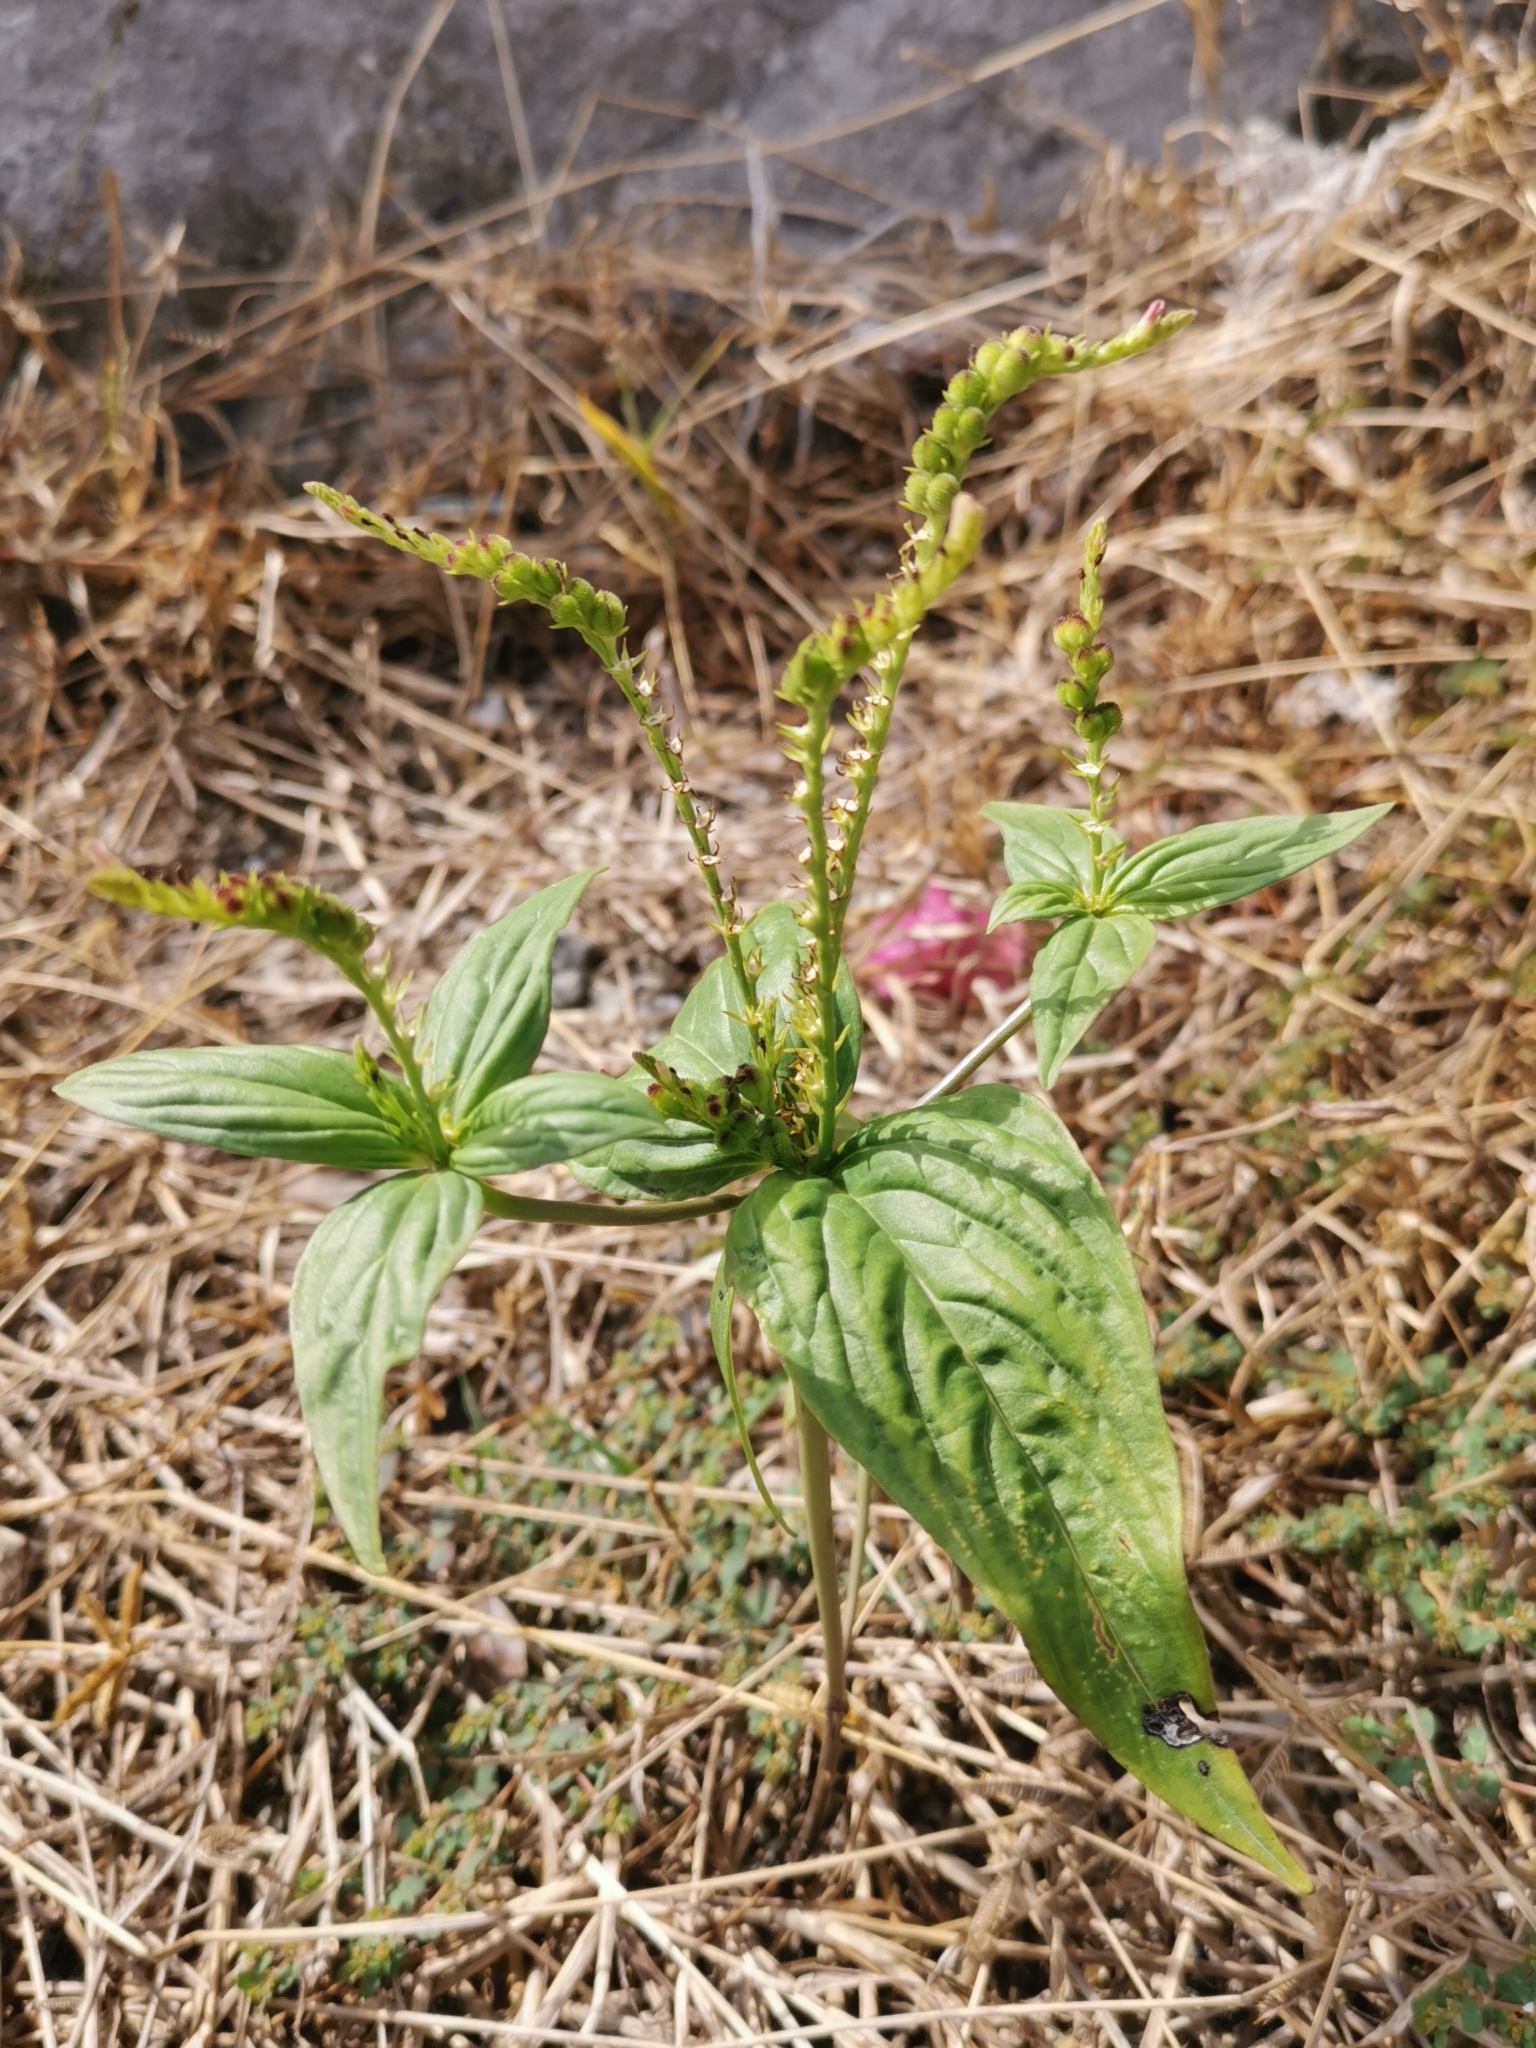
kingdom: Plantae
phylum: Tracheophyta
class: Magnoliopsida
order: Gentianales
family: Loganiaceae
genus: Spigelia
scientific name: Spigelia anthelmia
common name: West indian-pink
